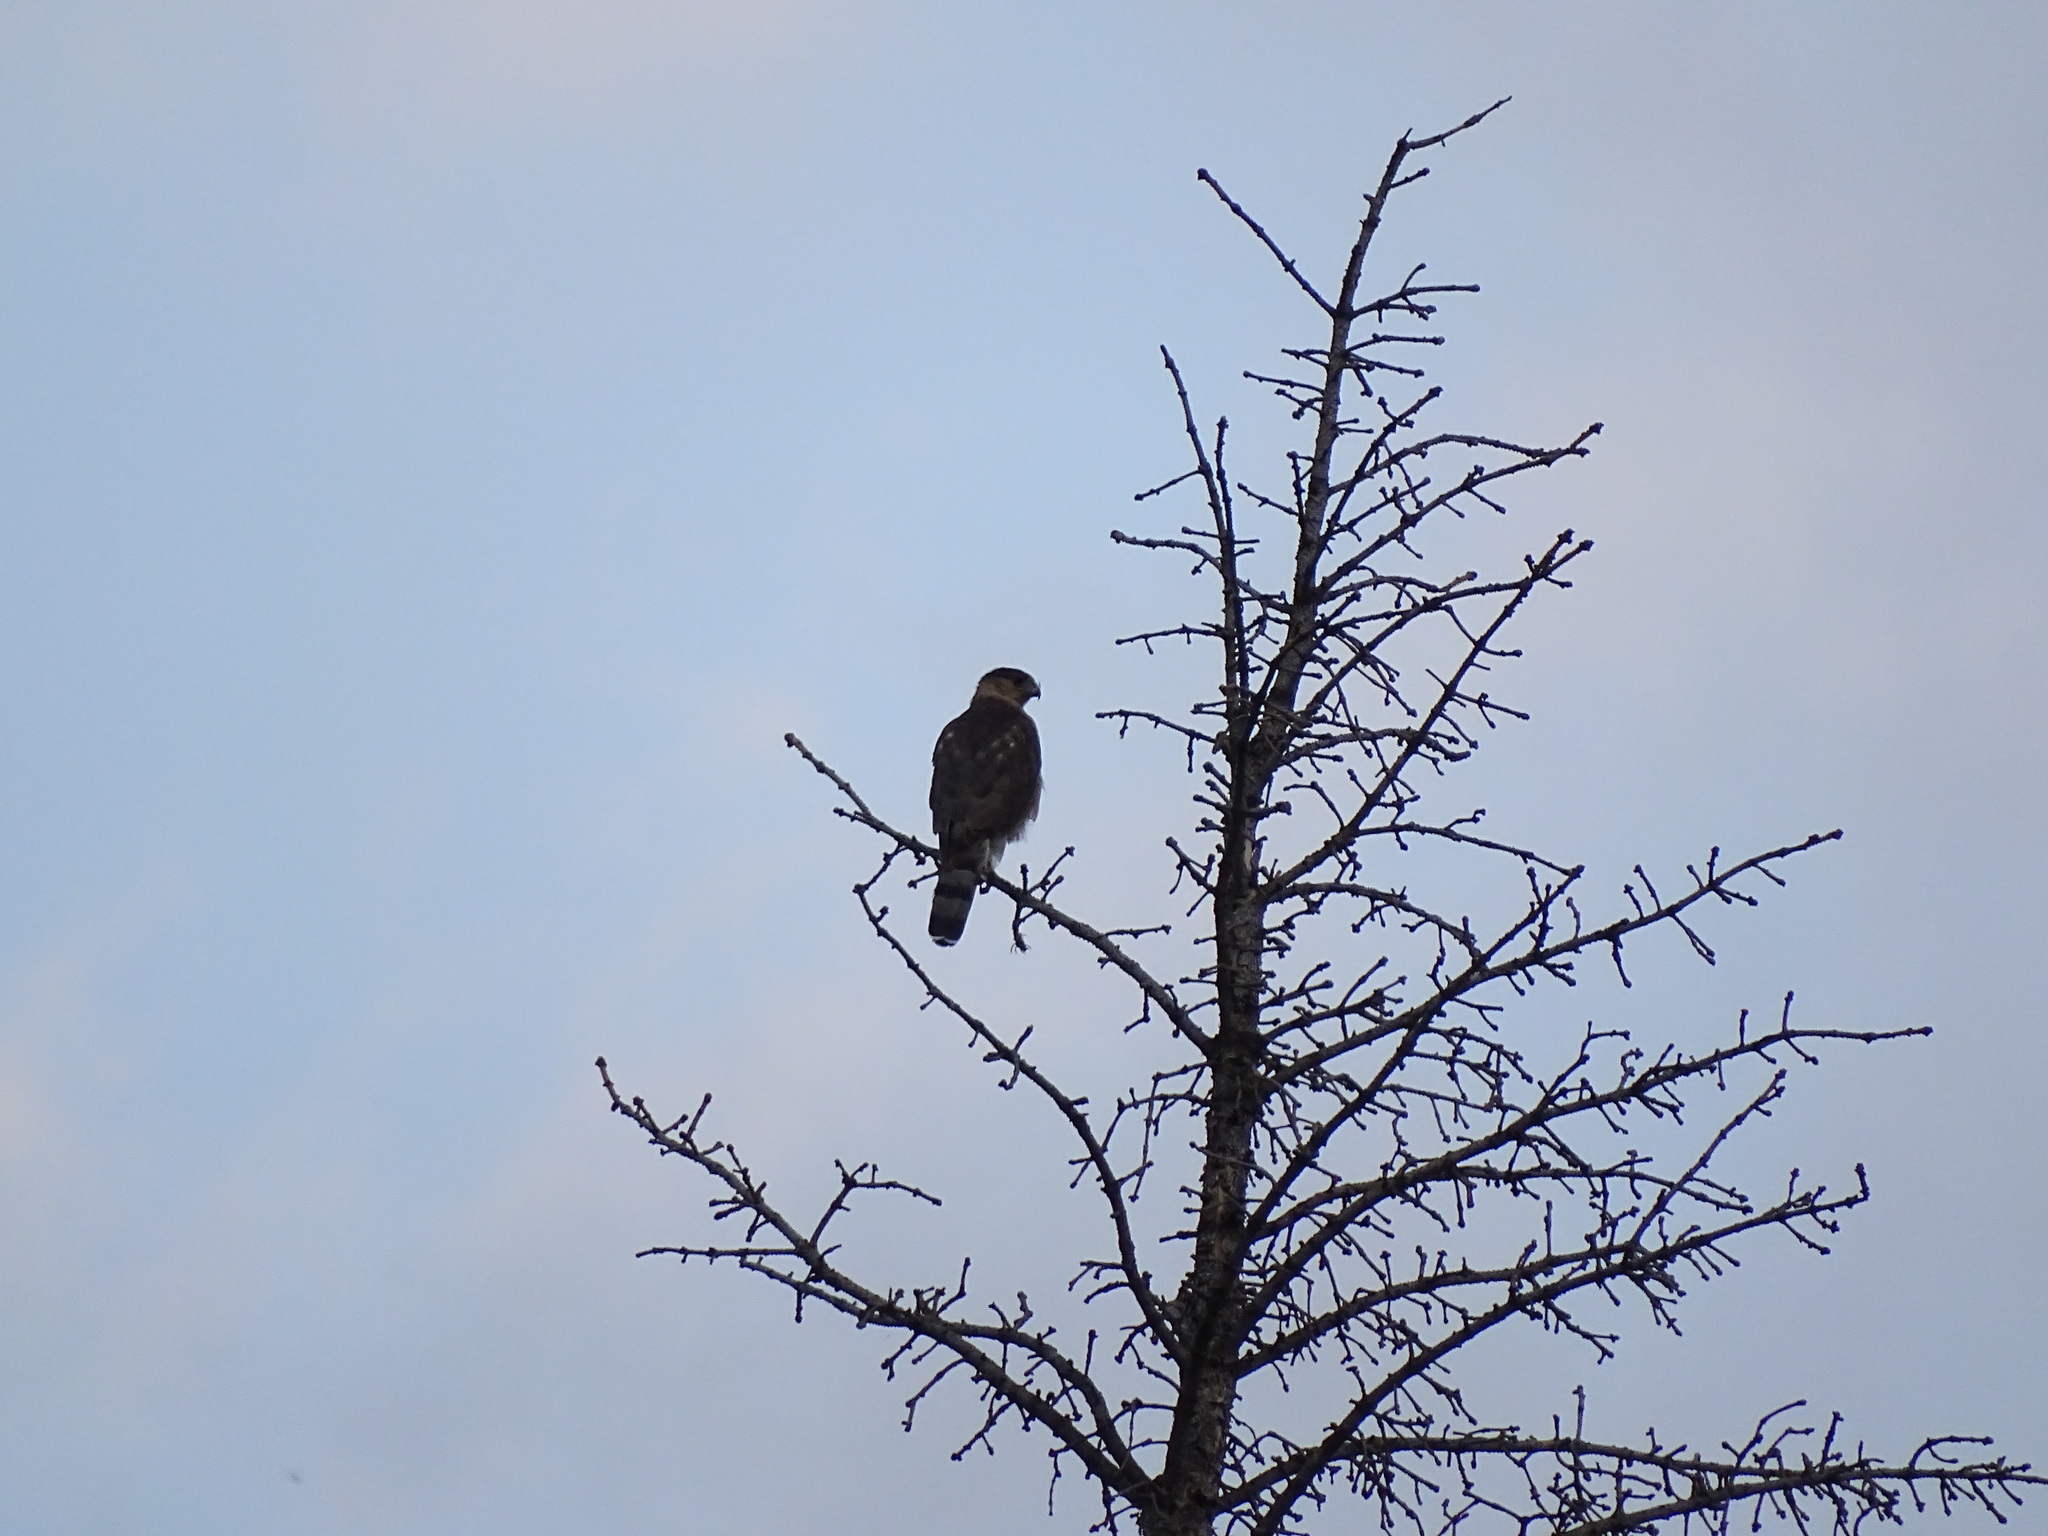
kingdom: Animalia
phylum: Chordata
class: Aves
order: Accipitriformes
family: Accipitridae
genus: Accipiter
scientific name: Accipiter cooperii
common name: Cooper's hawk
